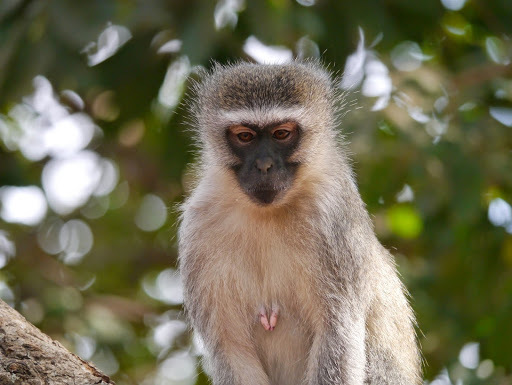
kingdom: Animalia
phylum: Chordata
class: Mammalia
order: Primates
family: Cercopithecidae
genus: Chlorocebus
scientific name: Chlorocebus pygerythrus
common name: Vervet monkey
